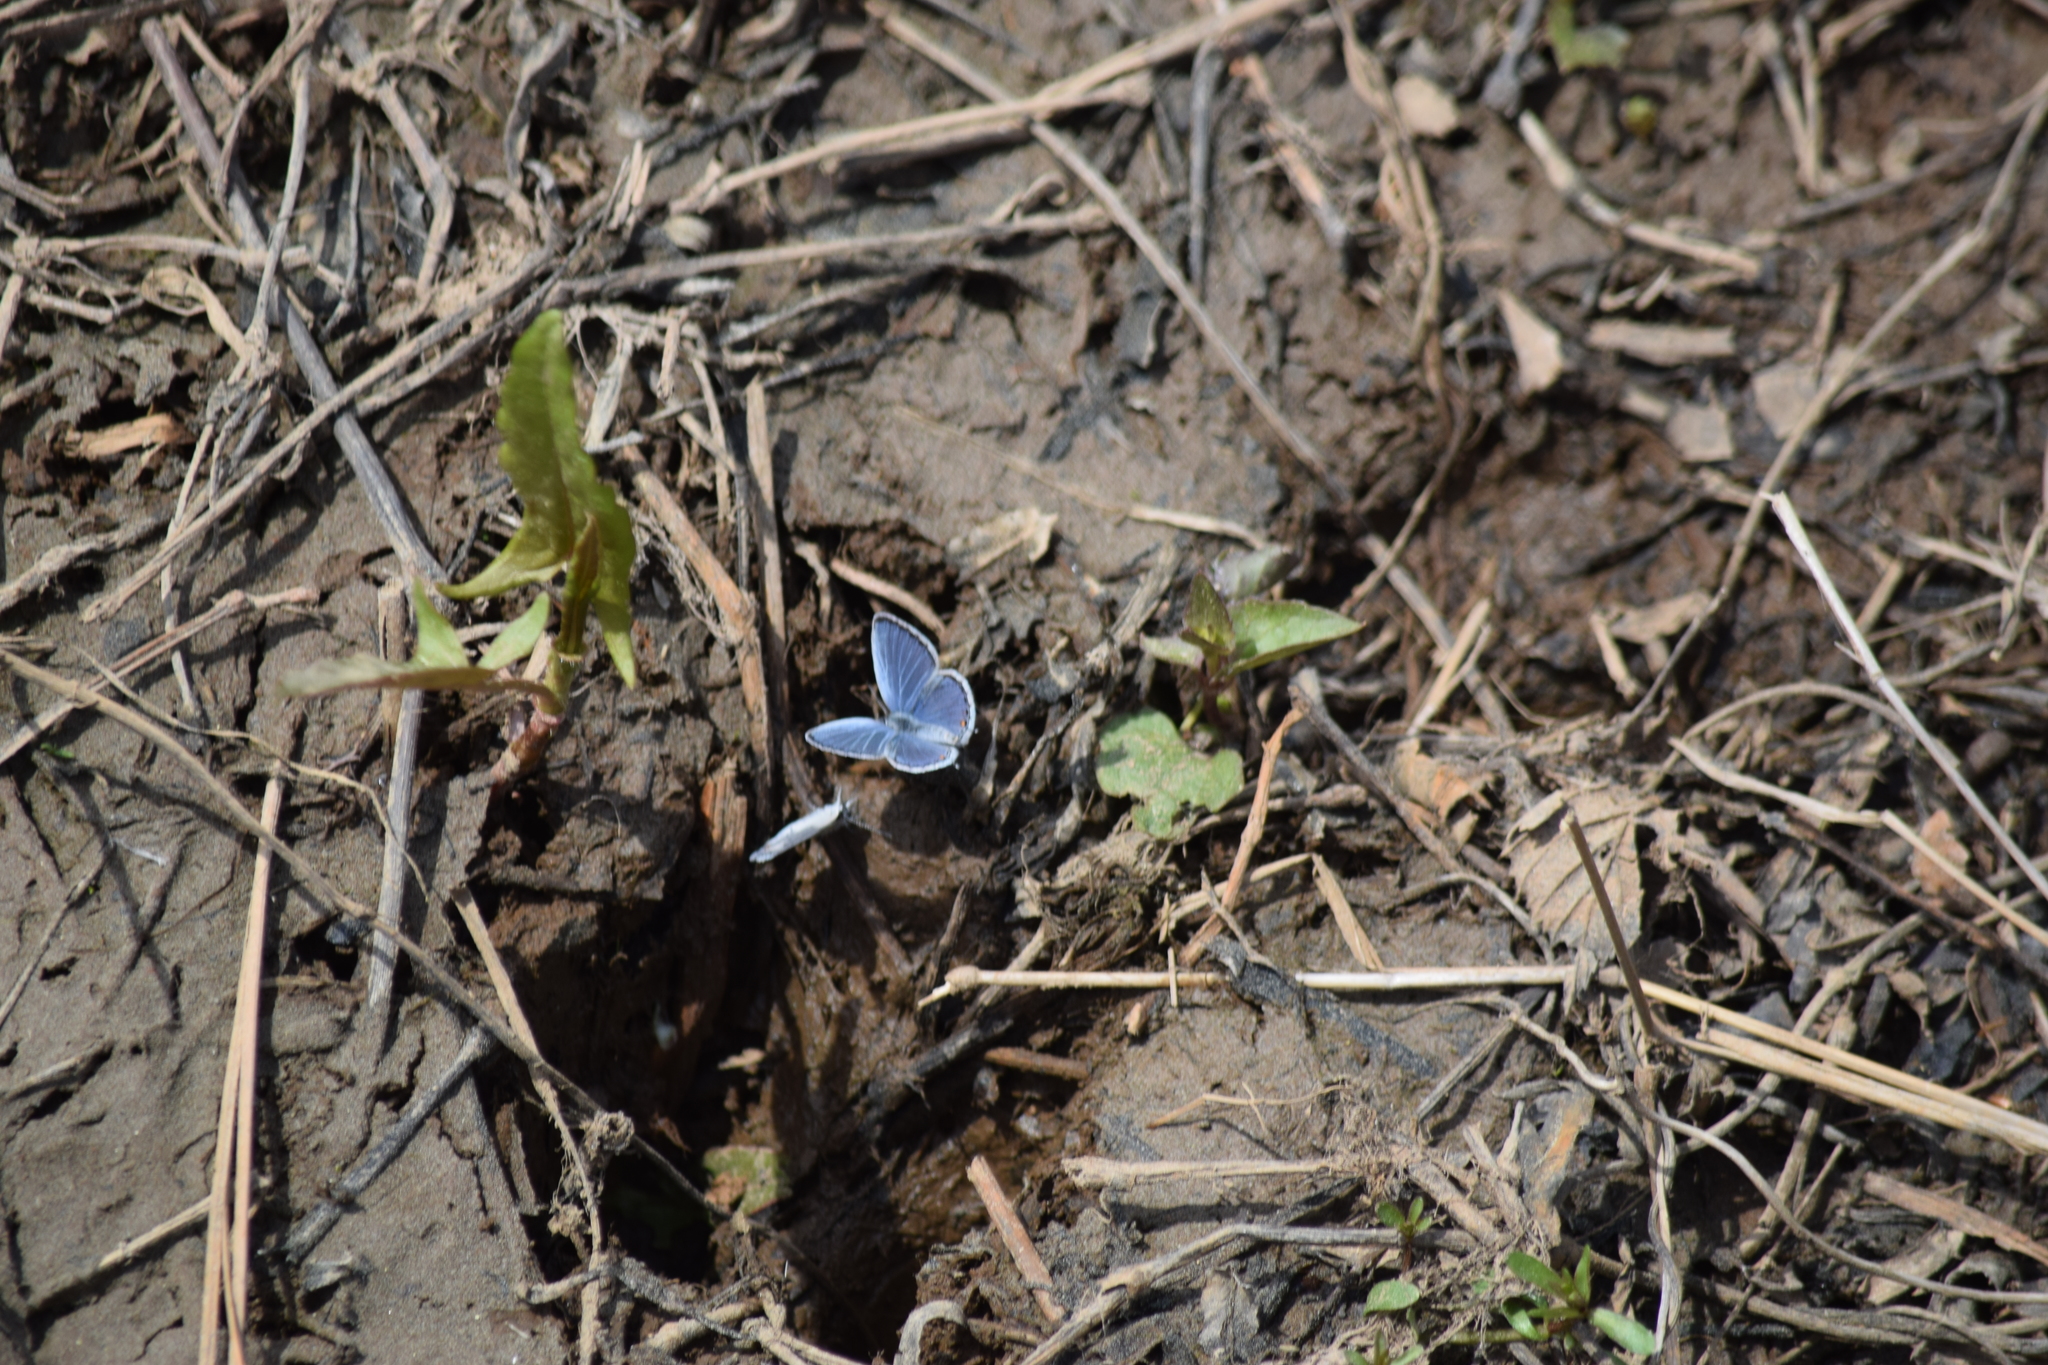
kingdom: Animalia
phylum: Arthropoda
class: Insecta
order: Lepidoptera
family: Lycaenidae
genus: Elkalyce
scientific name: Elkalyce comyntas
